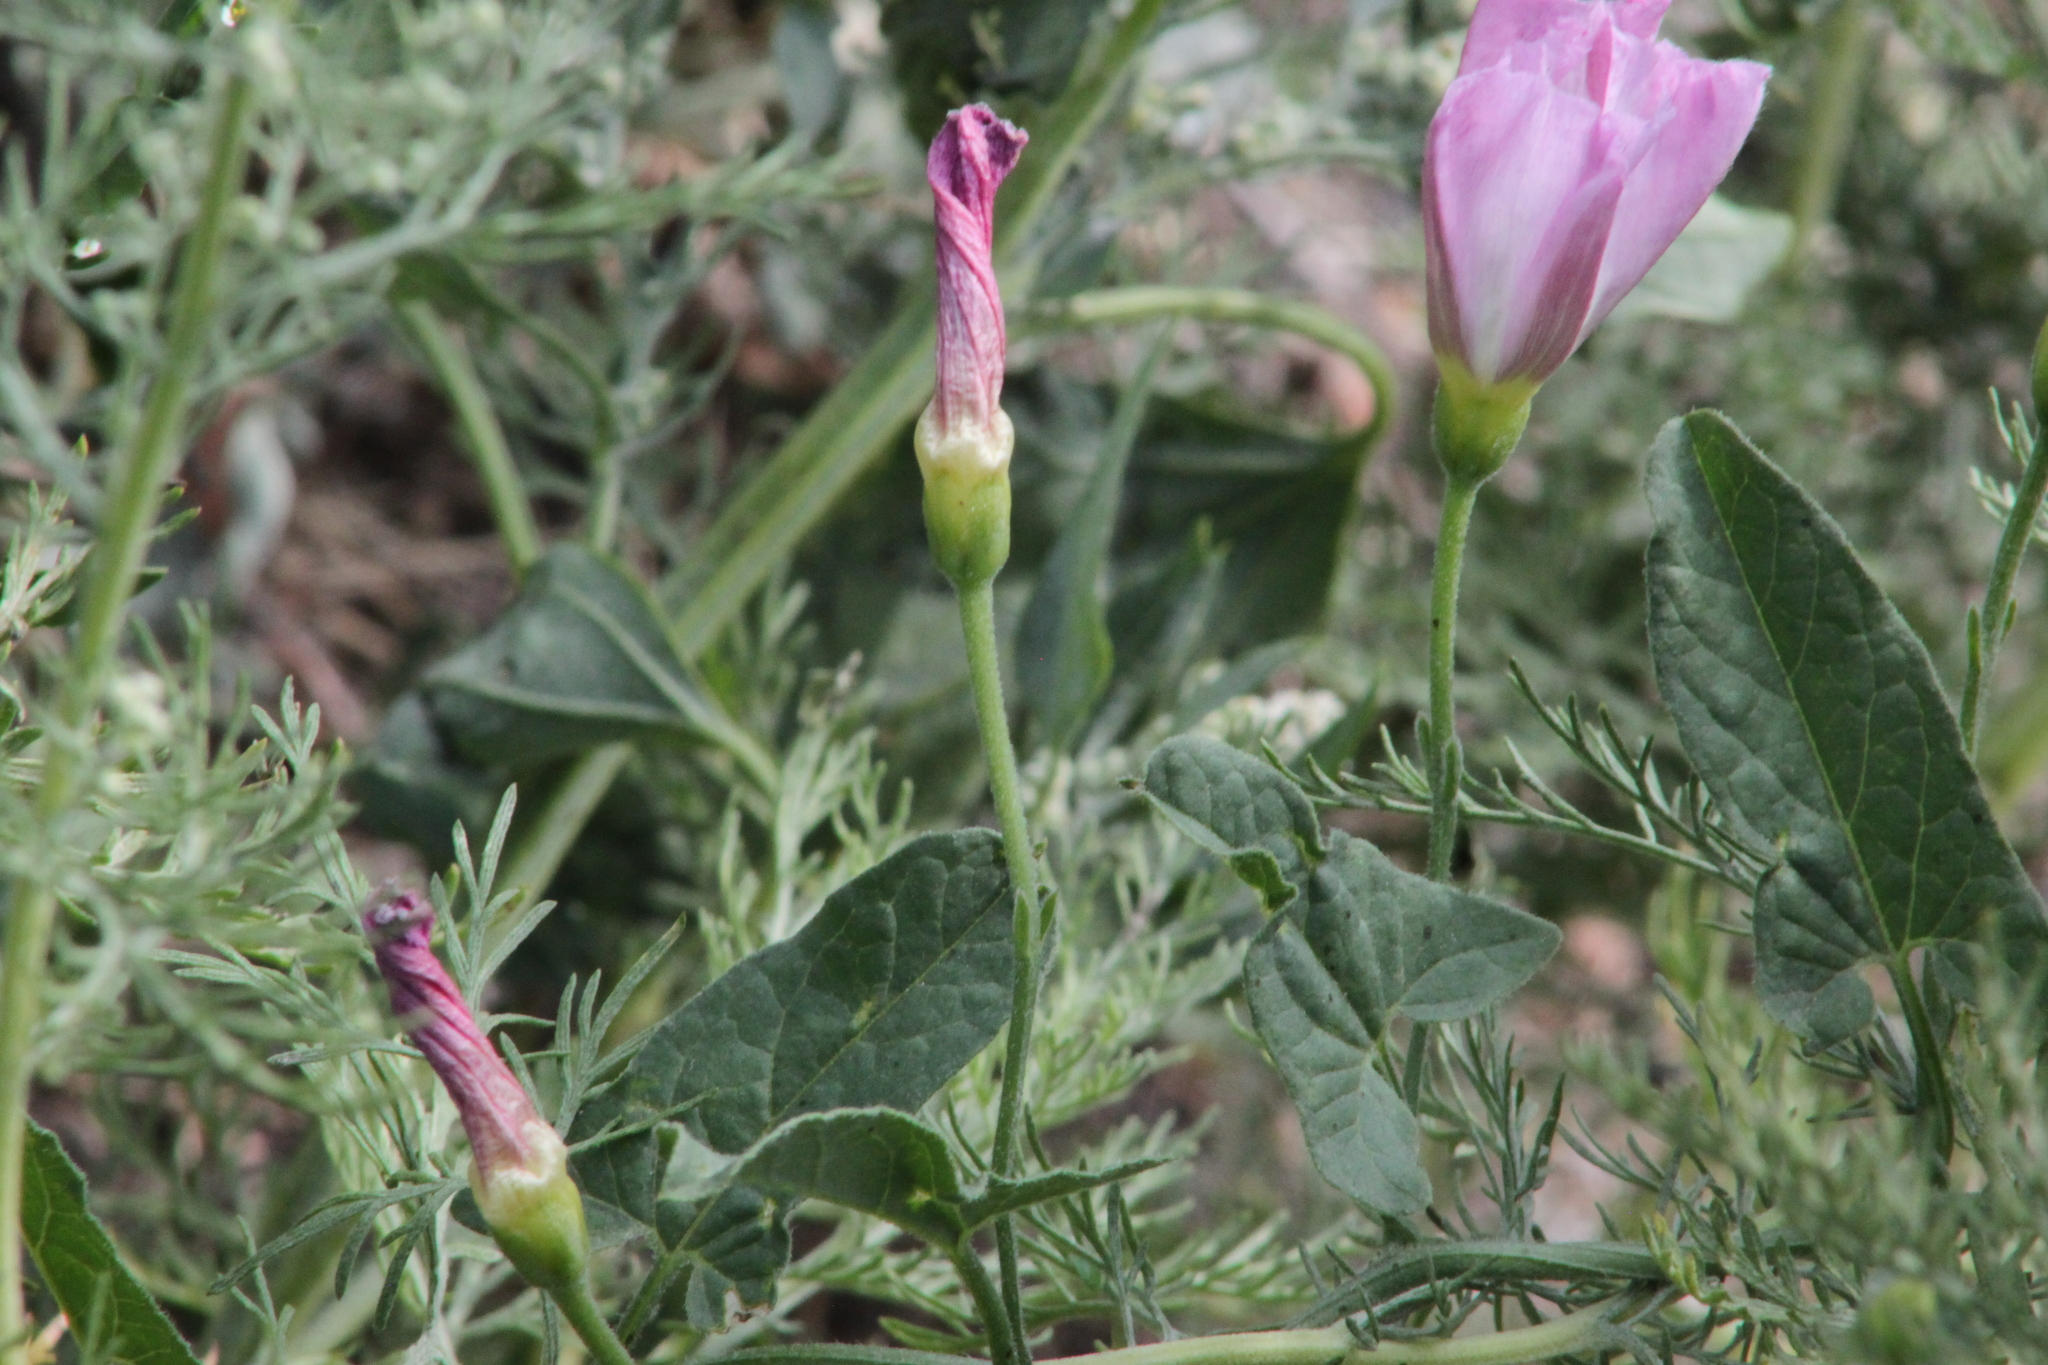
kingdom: Plantae
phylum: Tracheophyta
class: Magnoliopsida
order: Solanales
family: Convolvulaceae
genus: Convolvulus
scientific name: Convolvulus arvensis
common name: Field bindweed
